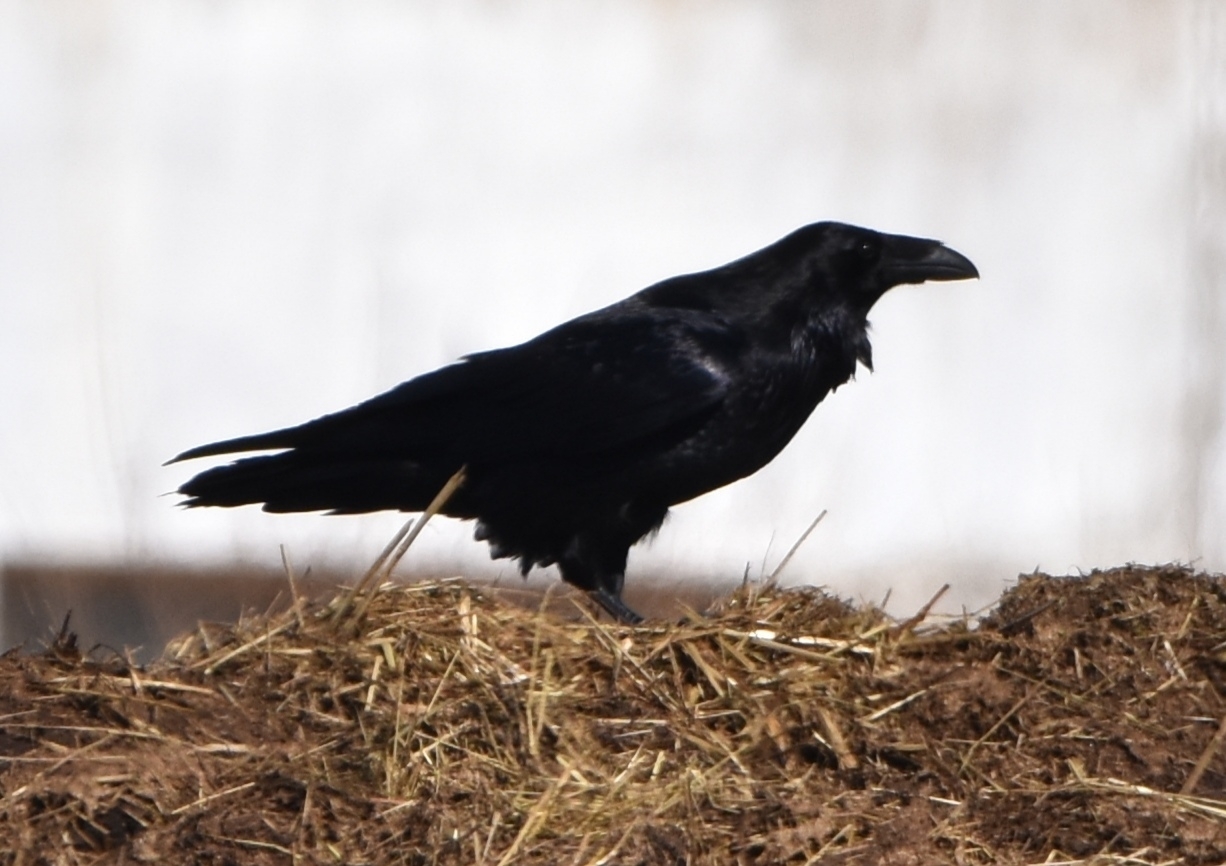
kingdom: Animalia
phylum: Chordata
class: Aves
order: Passeriformes
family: Corvidae
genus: Corvus
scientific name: Corvus corax
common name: Common raven
